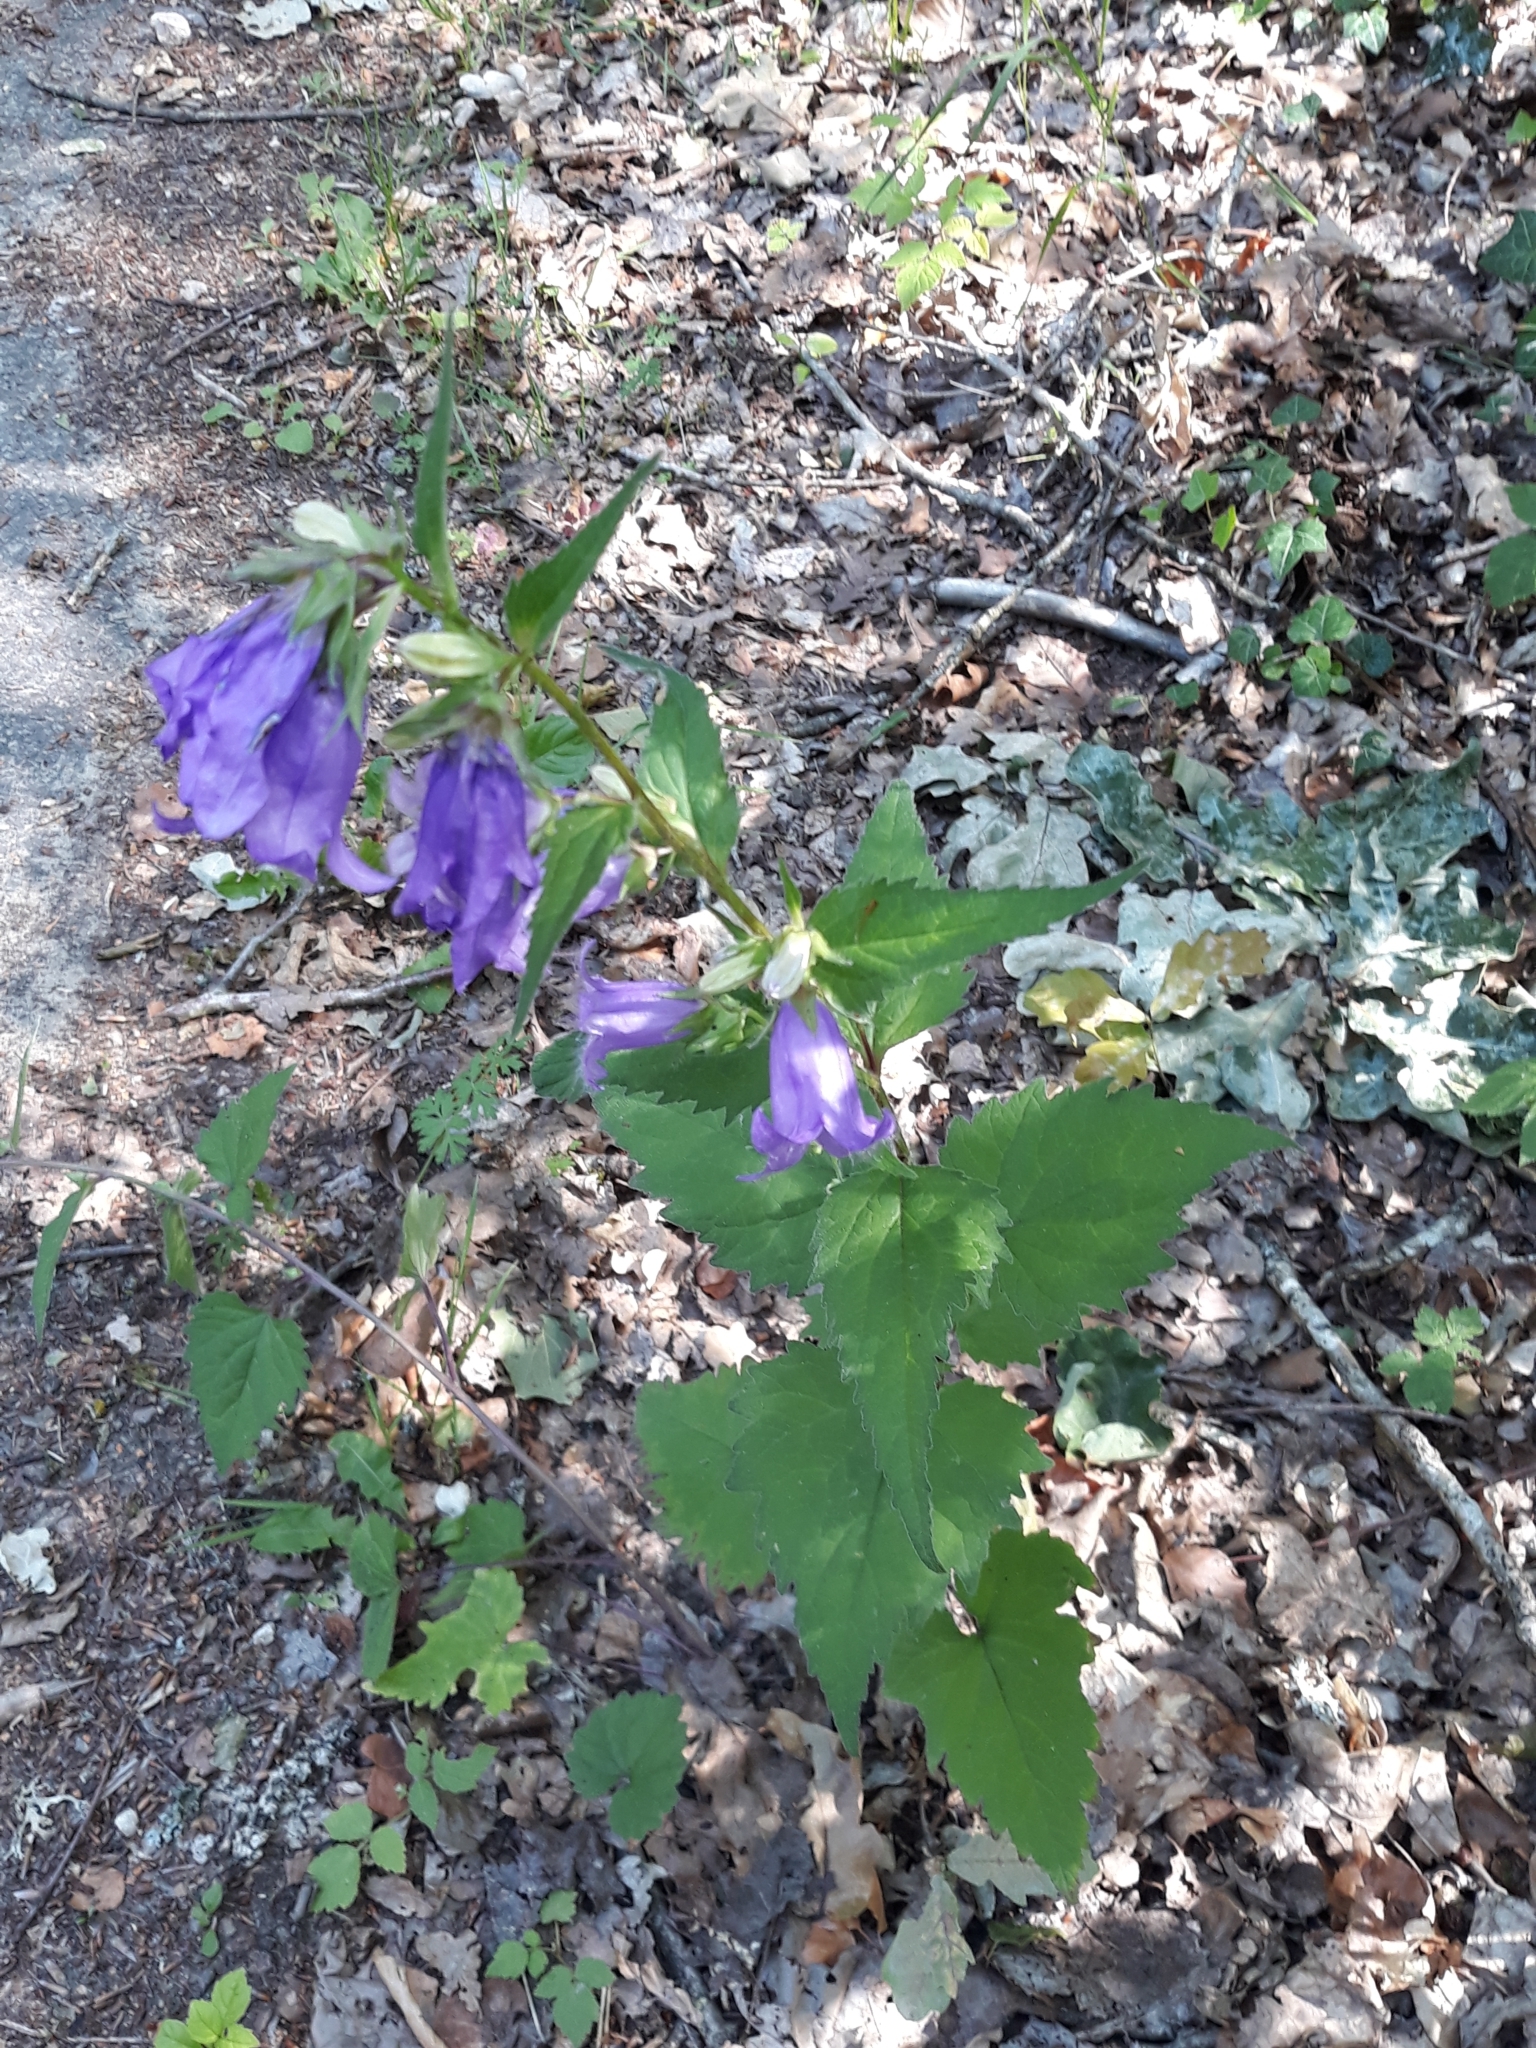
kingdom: Plantae
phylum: Tracheophyta
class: Magnoliopsida
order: Asterales
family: Campanulaceae
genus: Campanula
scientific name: Campanula trachelium
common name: Nettle-leaved bellflower
